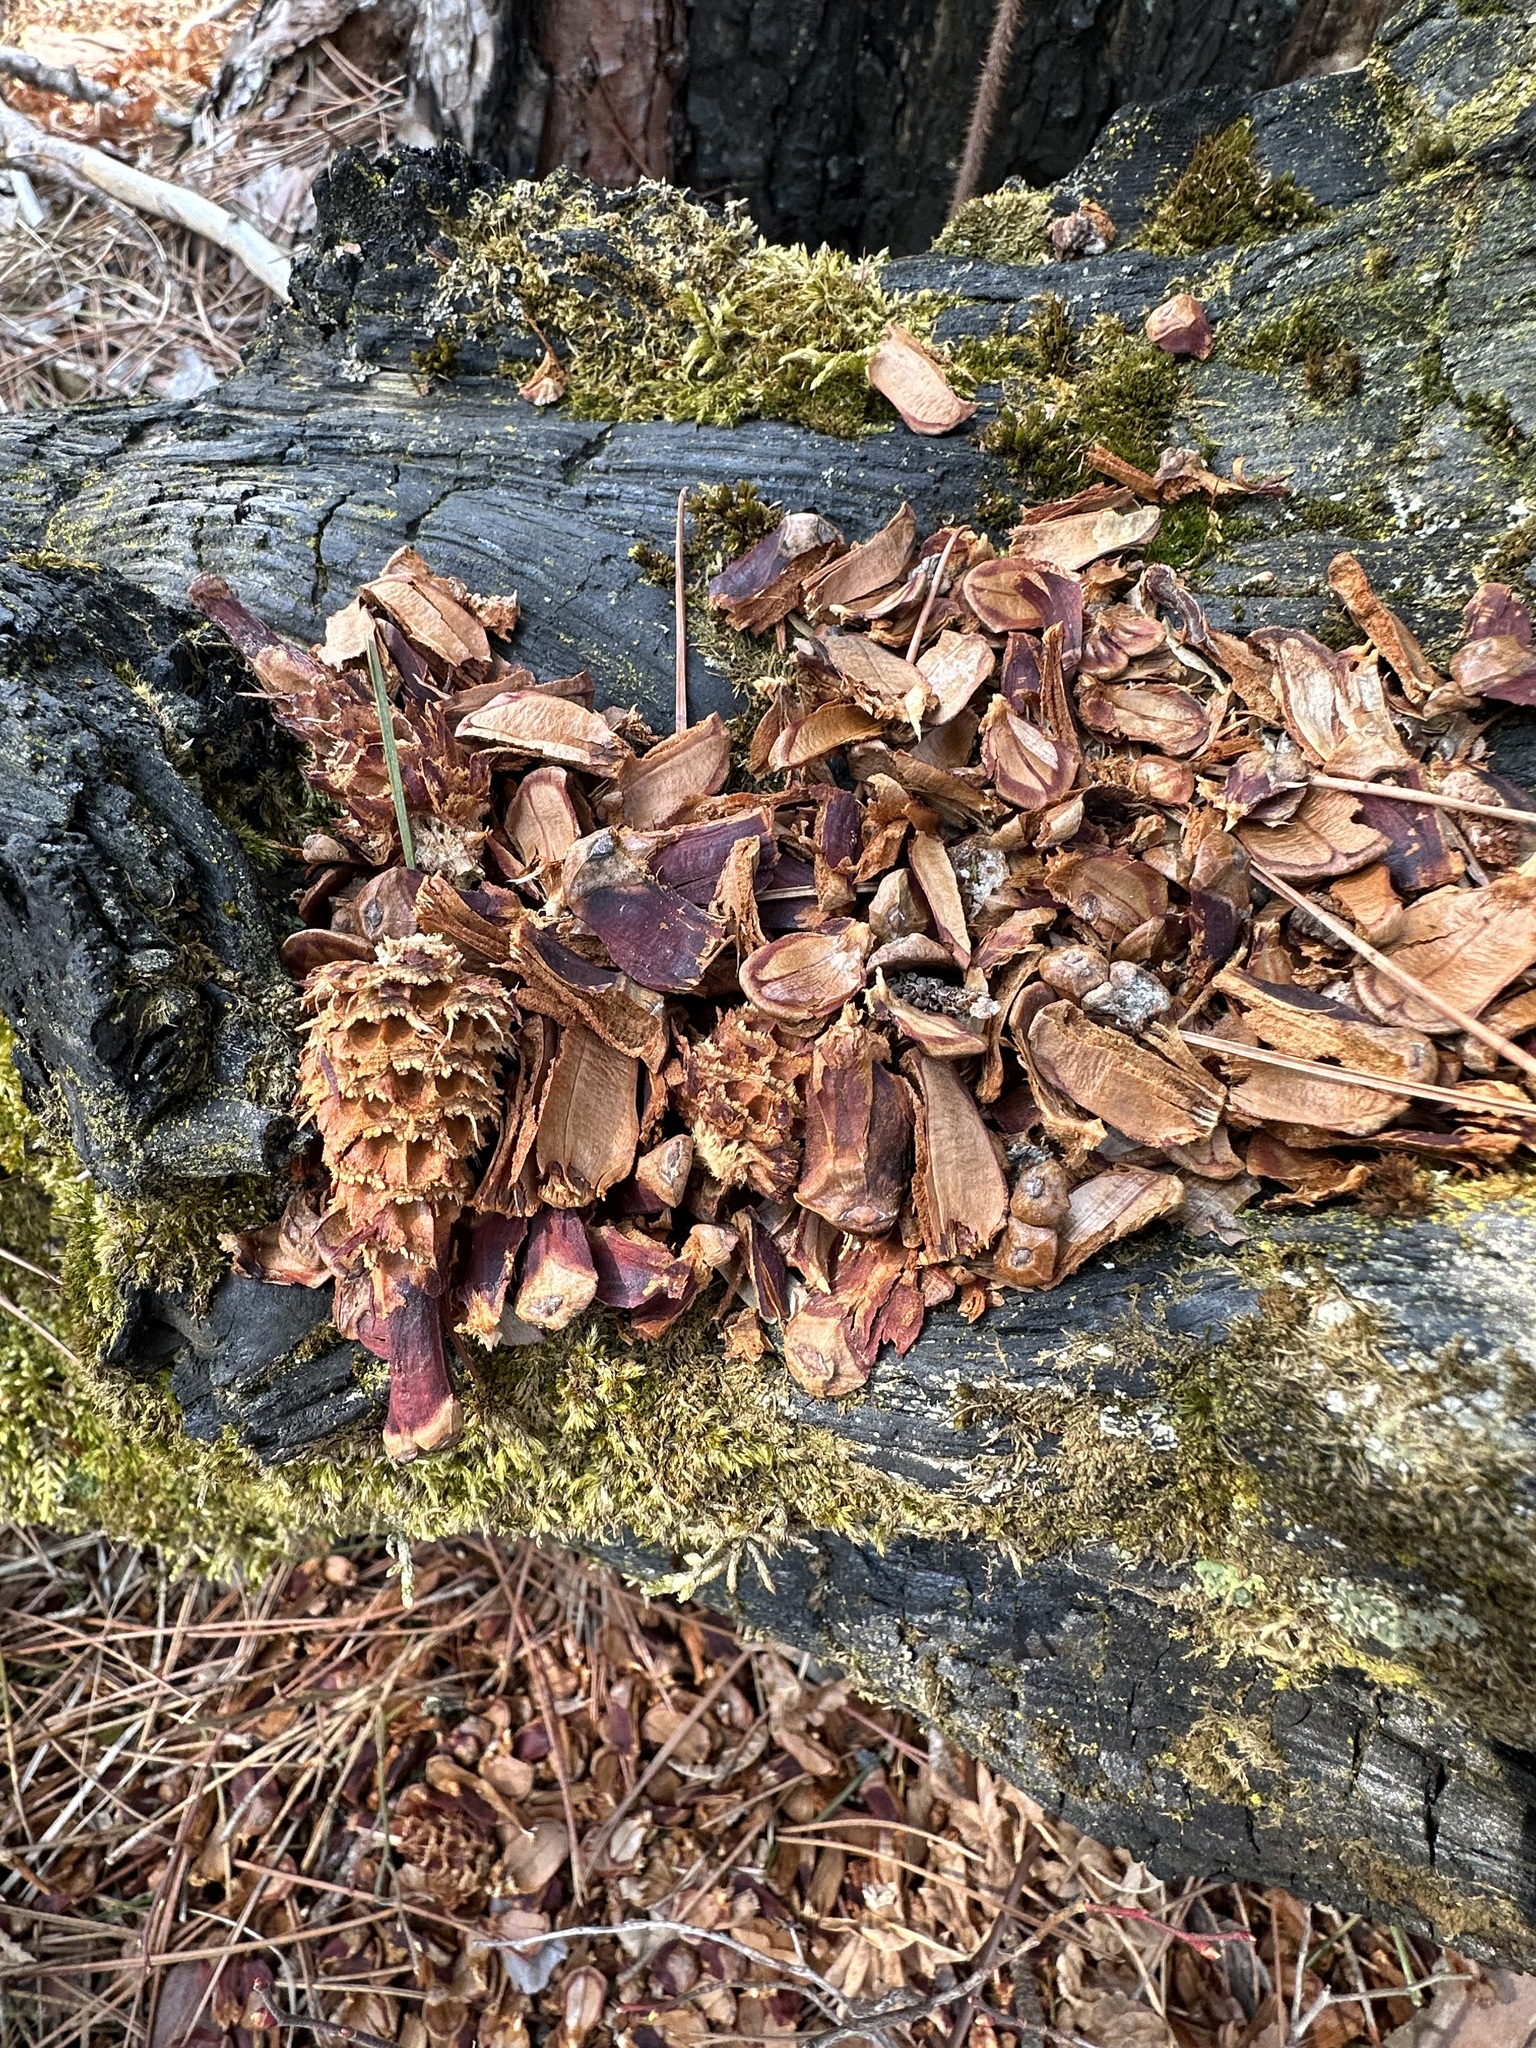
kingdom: Animalia
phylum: Chordata
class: Mammalia
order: Rodentia
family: Sciuridae
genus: Tamiasciurus
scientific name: Tamiasciurus hudsonicus
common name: Red squirrel
